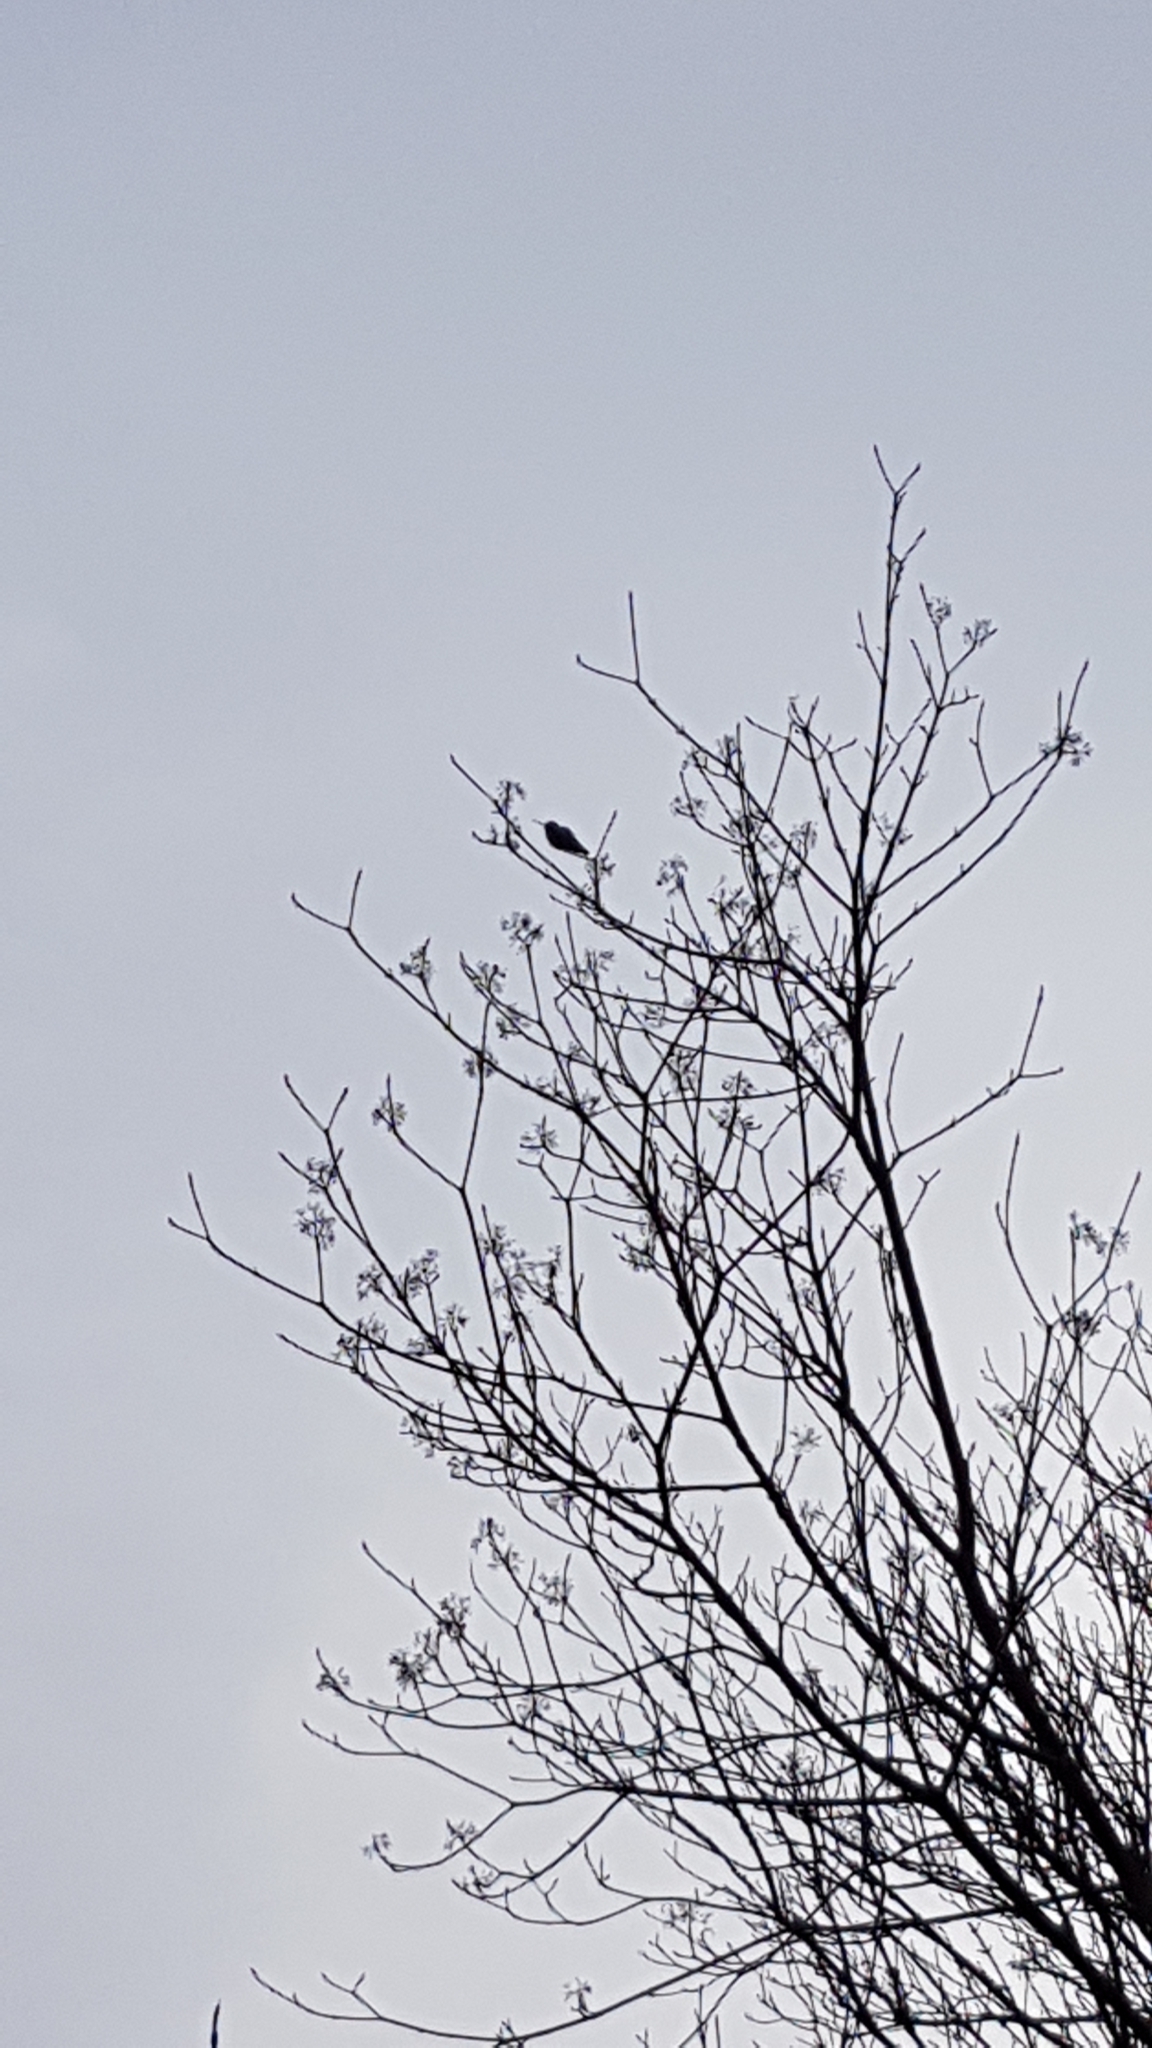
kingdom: Animalia
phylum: Chordata
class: Aves
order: Apodiformes
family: Trochilidae
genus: Calypte
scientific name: Calypte anna
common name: Anna's hummingbird
